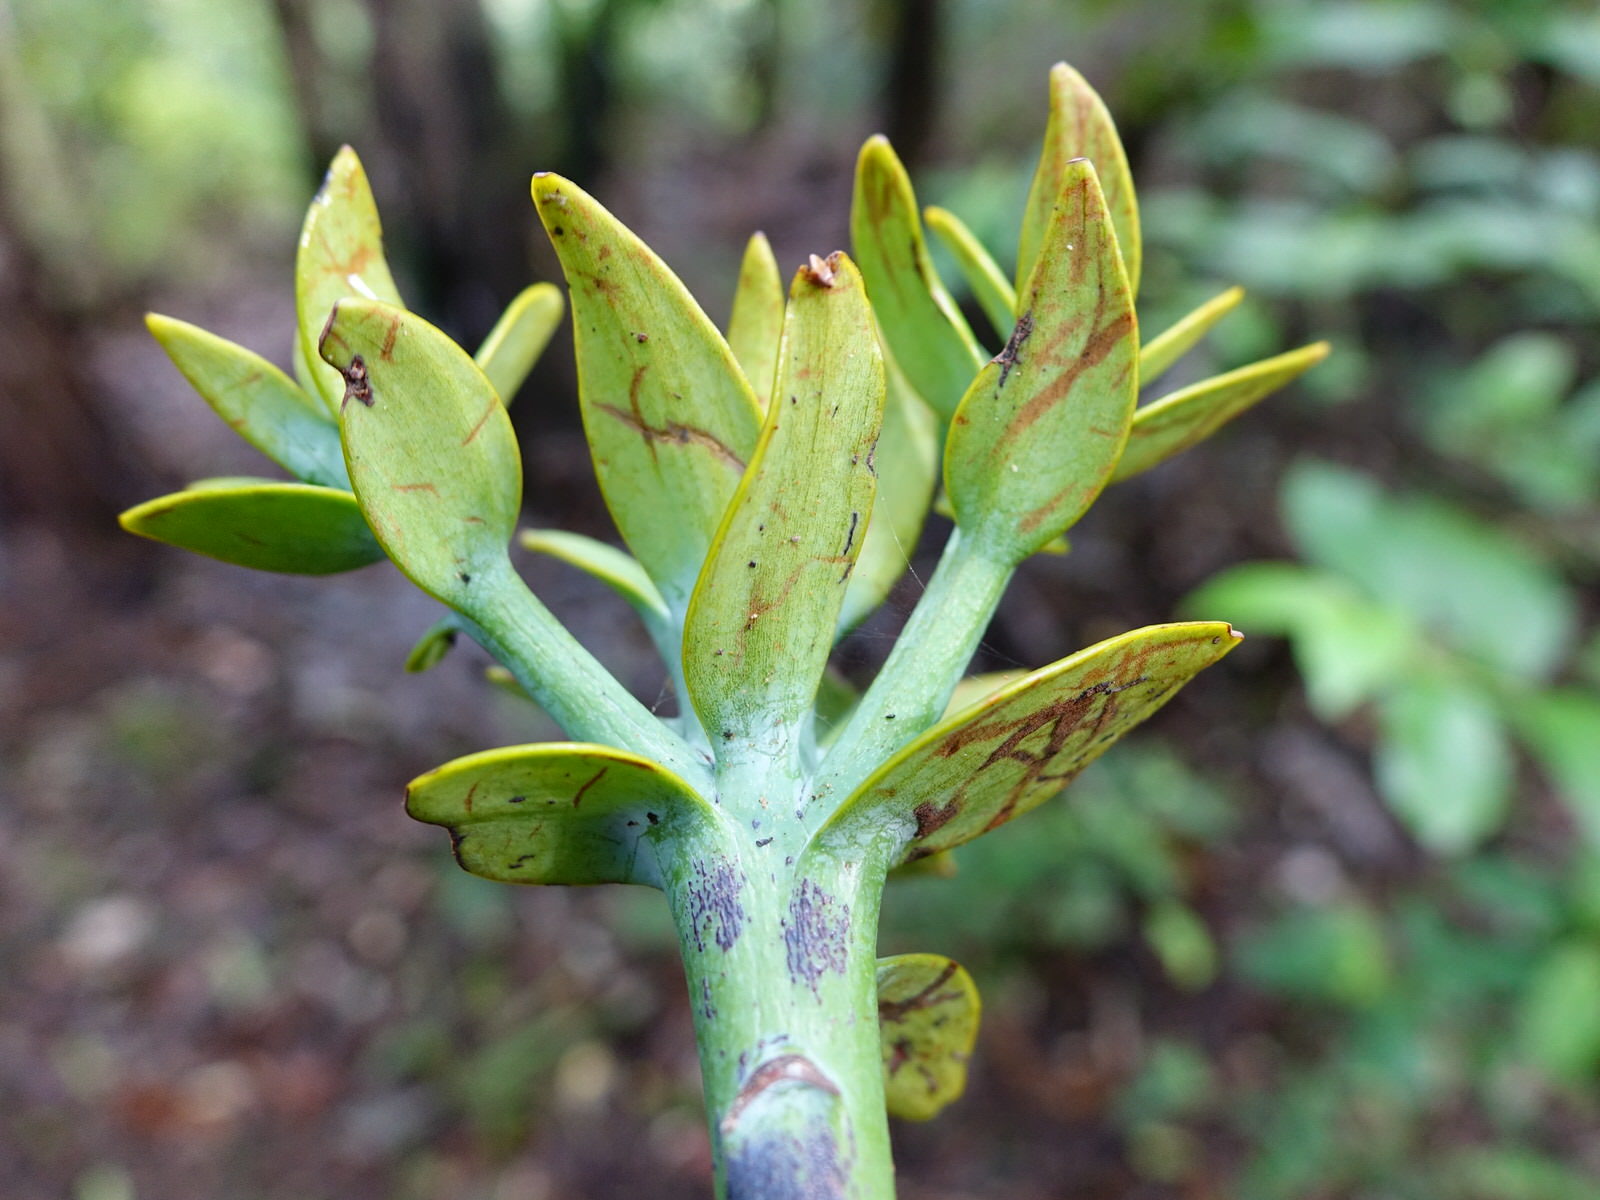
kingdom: Plantae
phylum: Tracheophyta
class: Pinopsida
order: Pinales
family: Araucariaceae
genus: Agathis
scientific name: Agathis australis
